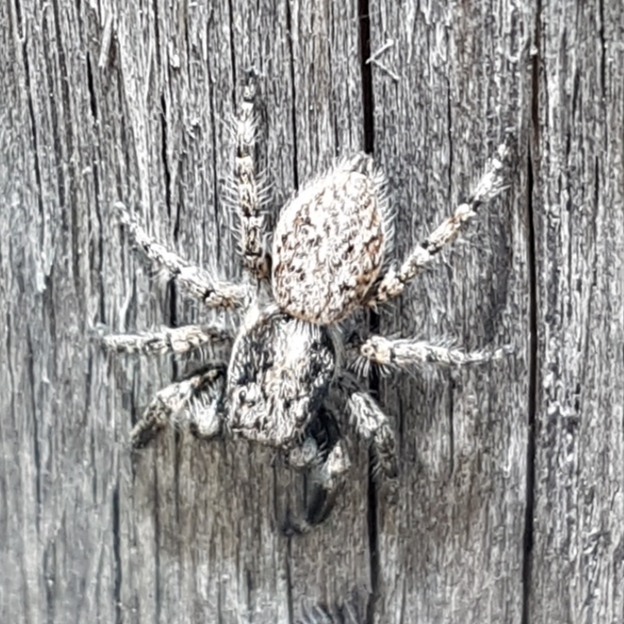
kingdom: Animalia
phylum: Arthropoda
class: Arachnida
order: Araneae
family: Salticidae
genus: Menemerus
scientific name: Menemerus taeniatus
